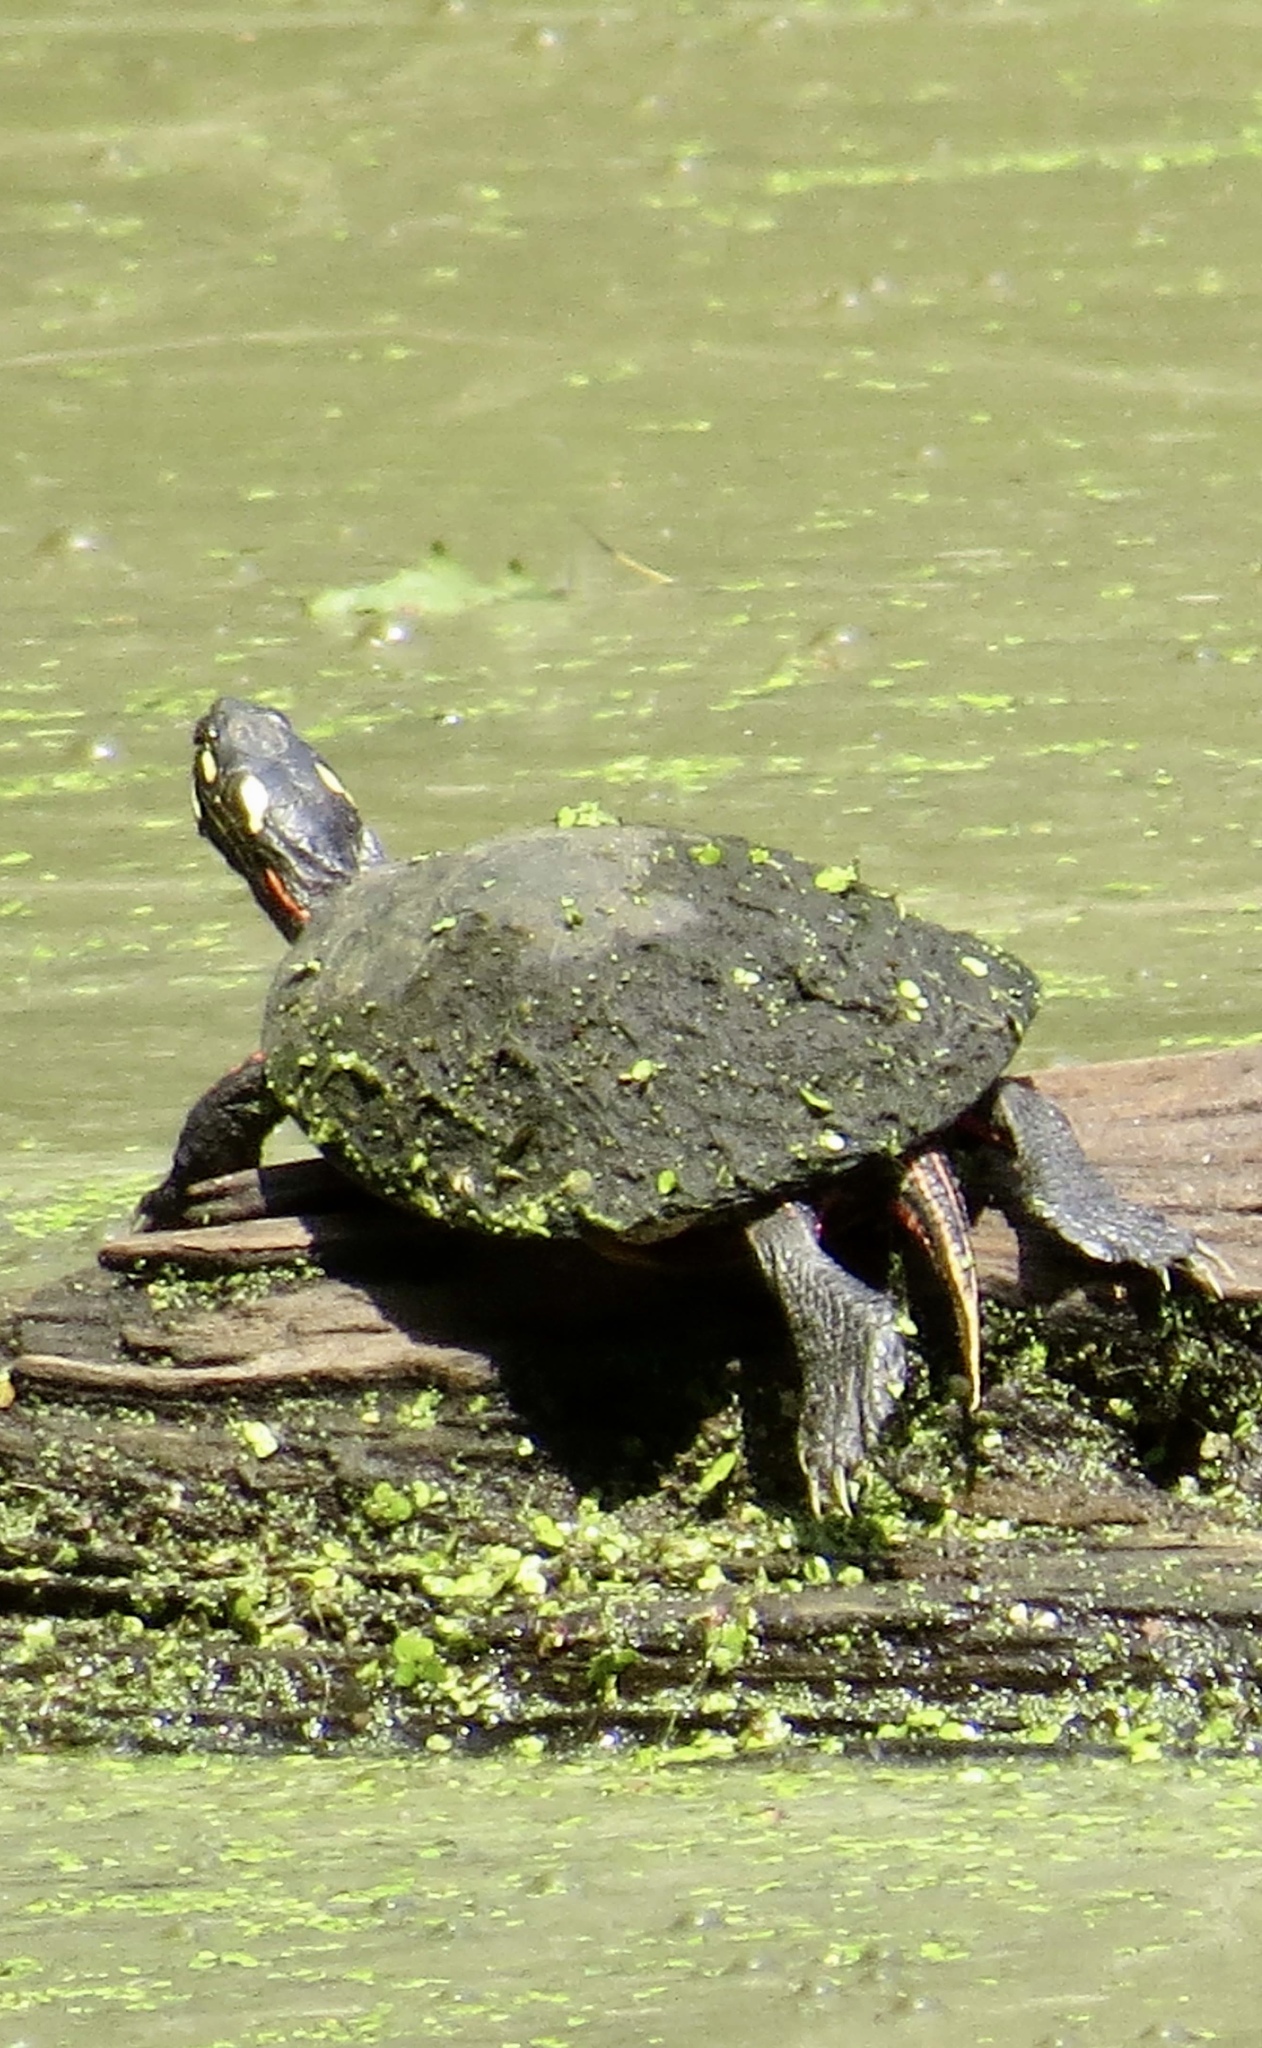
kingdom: Animalia
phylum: Chordata
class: Testudines
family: Emydidae
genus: Chrysemys
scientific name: Chrysemys picta
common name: Painted turtle
